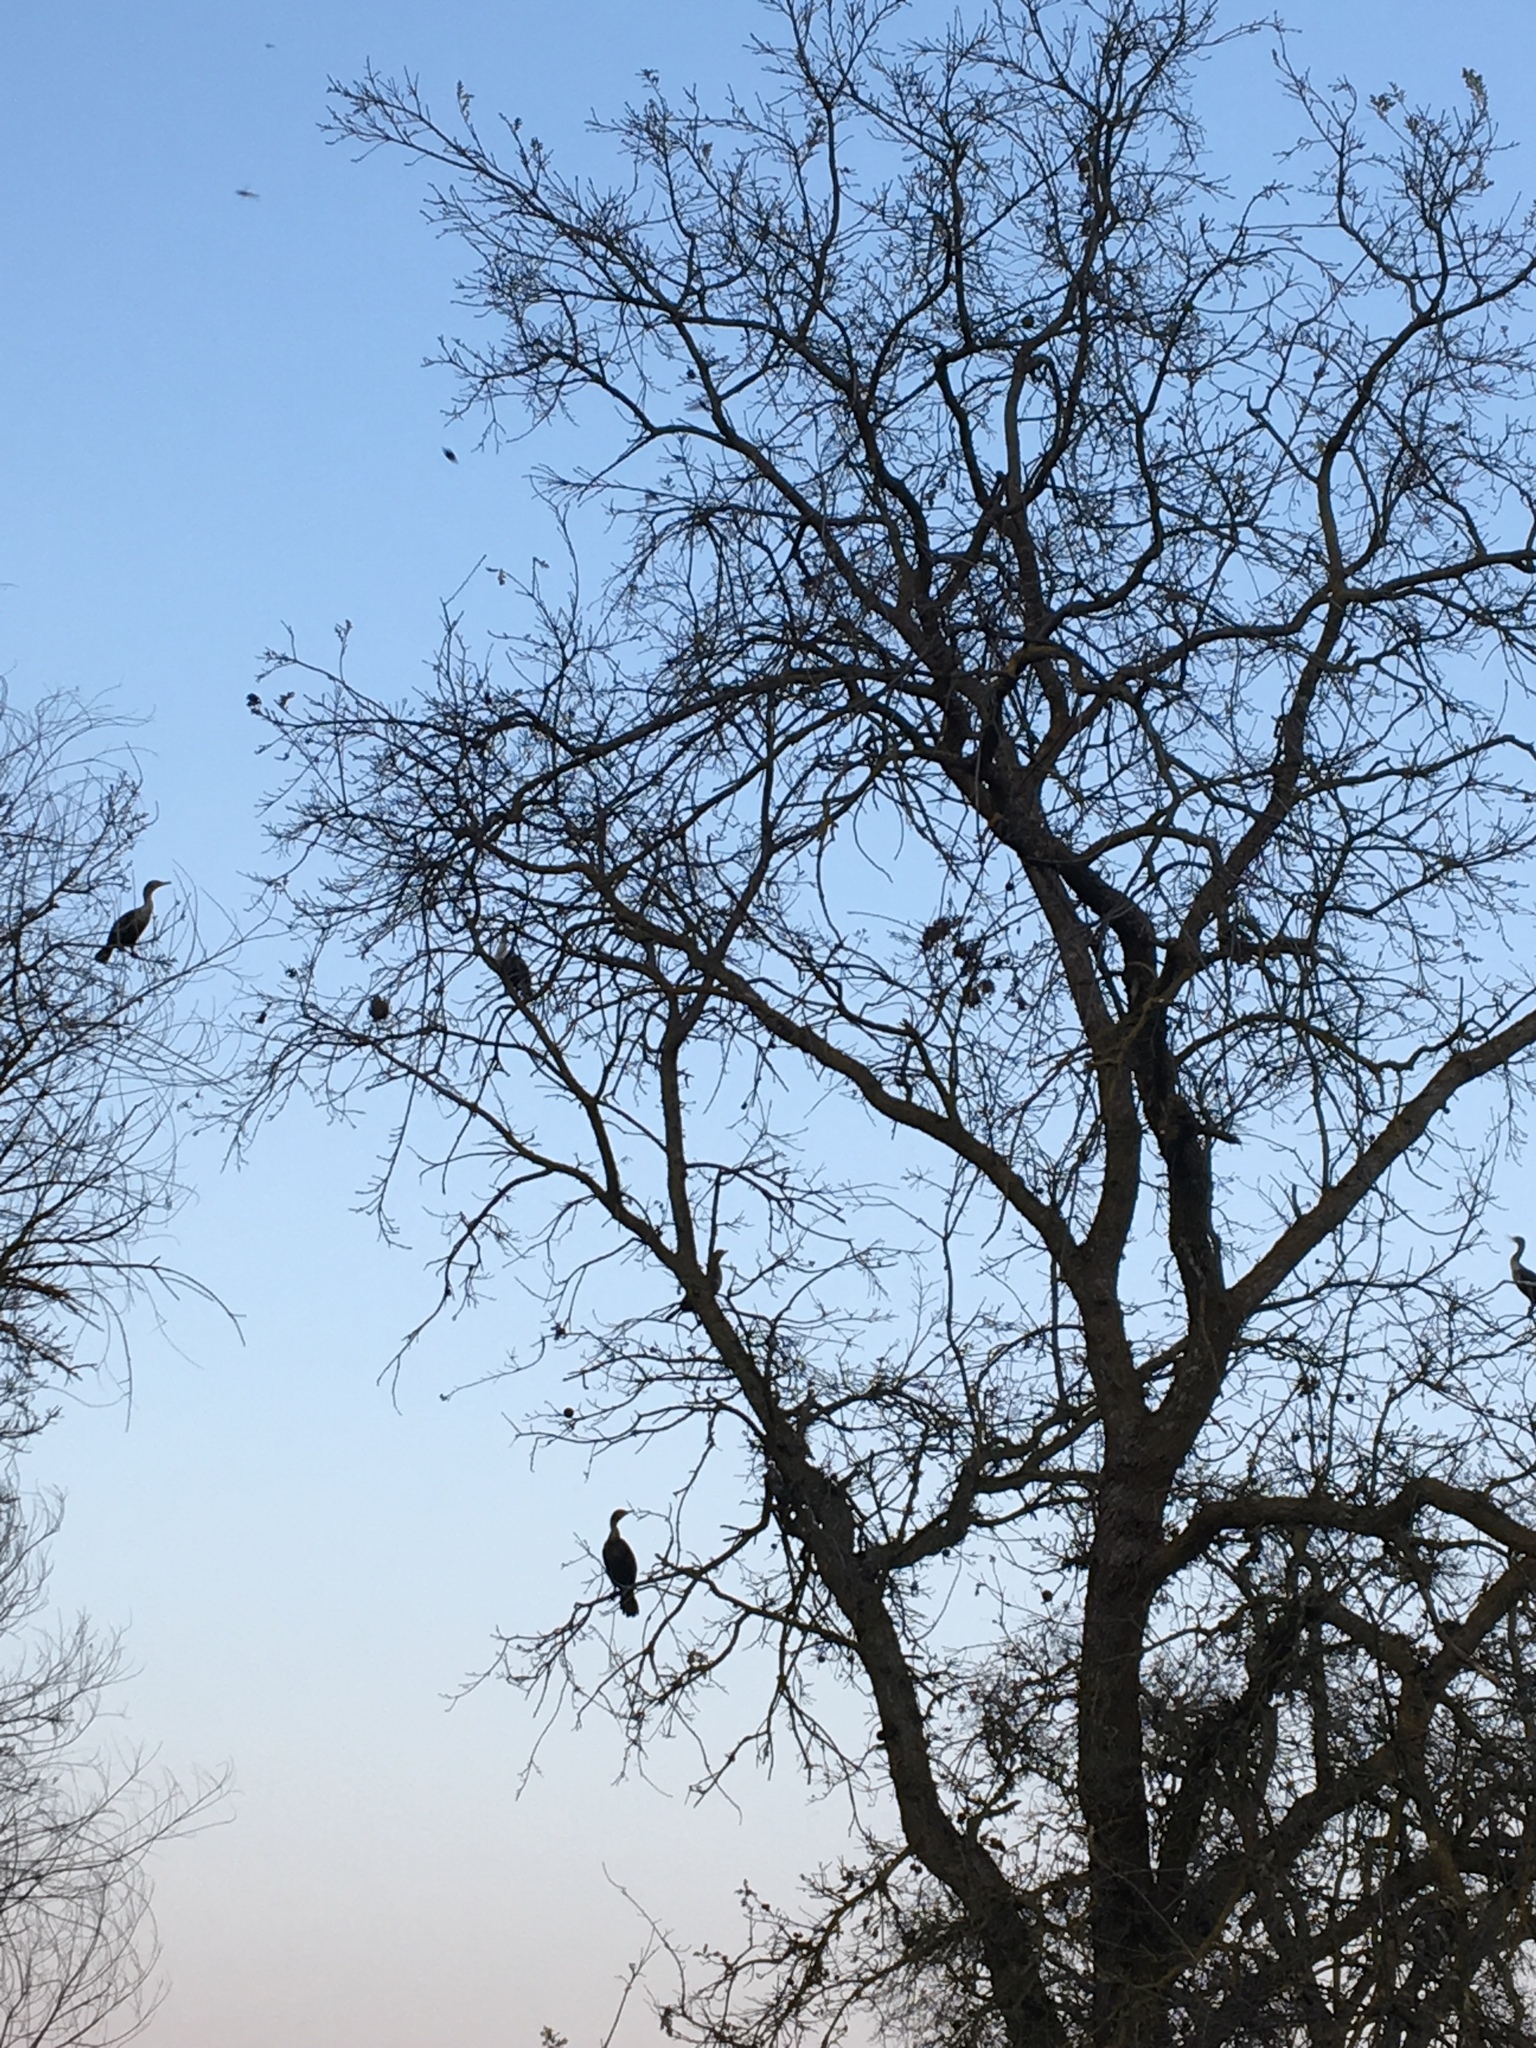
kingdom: Animalia
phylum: Chordata
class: Aves
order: Suliformes
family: Phalacrocoracidae
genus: Phalacrocorax
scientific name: Phalacrocorax auritus
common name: Double-crested cormorant
